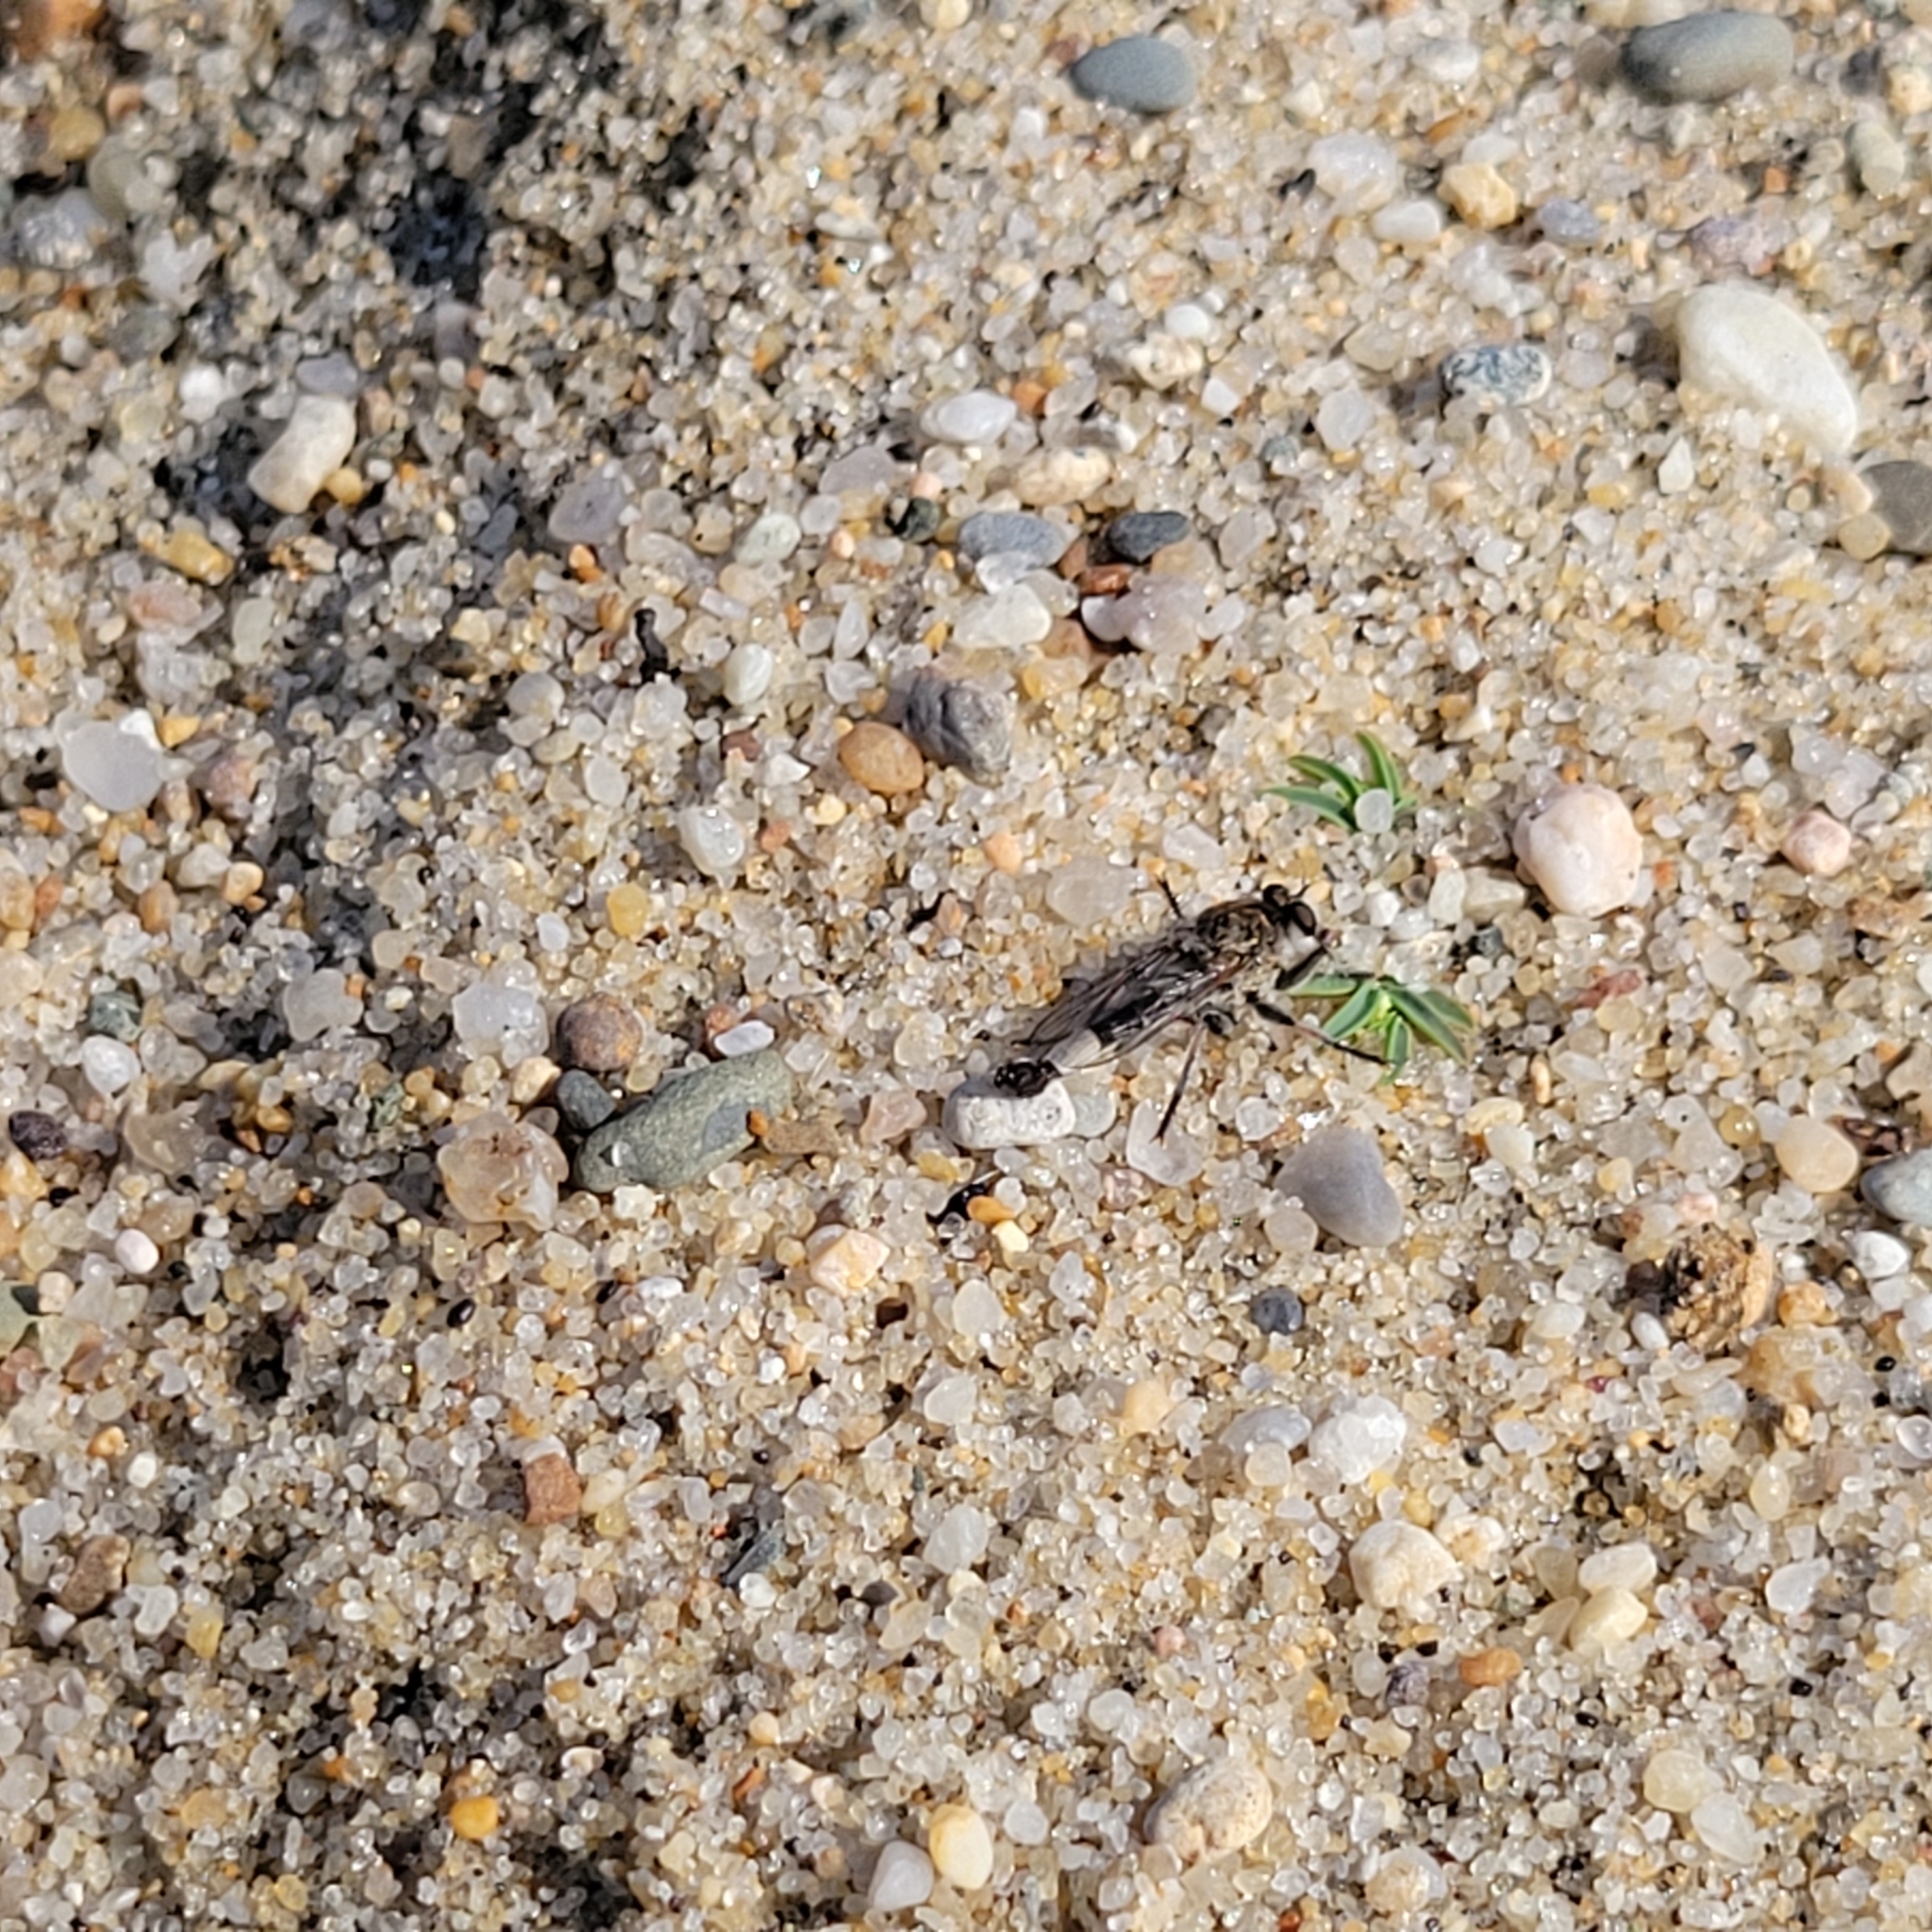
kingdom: Animalia
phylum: Arthropoda
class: Insecta
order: Diptera
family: Asilidae
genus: Efferia
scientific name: Efferia albibarbis
